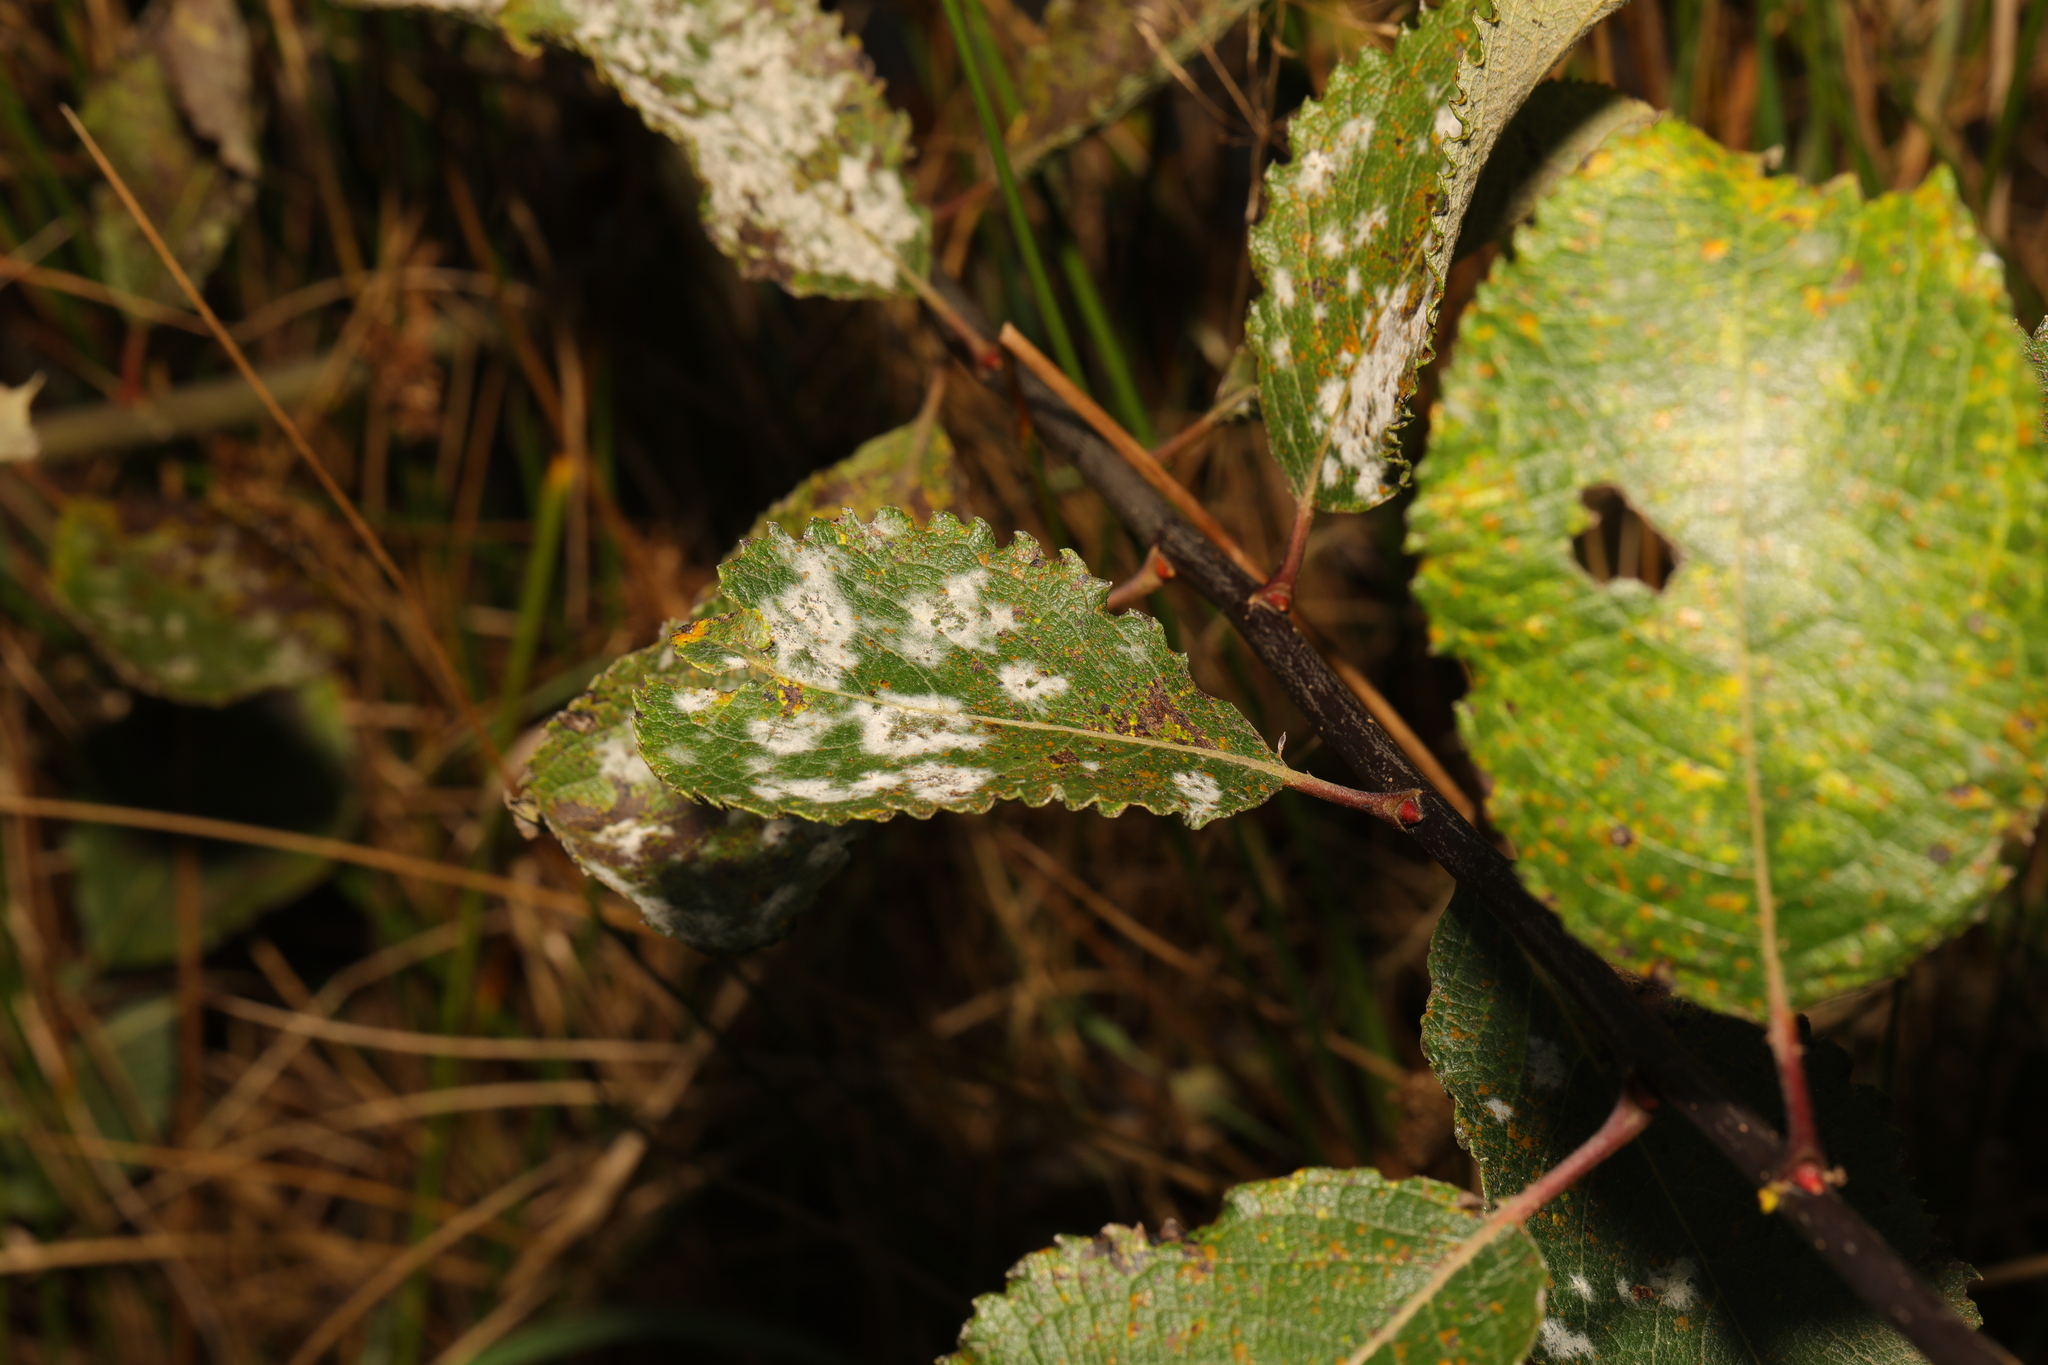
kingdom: Fungi
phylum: Ascomycota
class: Leotiomycetes
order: Helotiales
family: Erysiphaceae
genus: Erysiphe
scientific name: Erysiphe capreae
